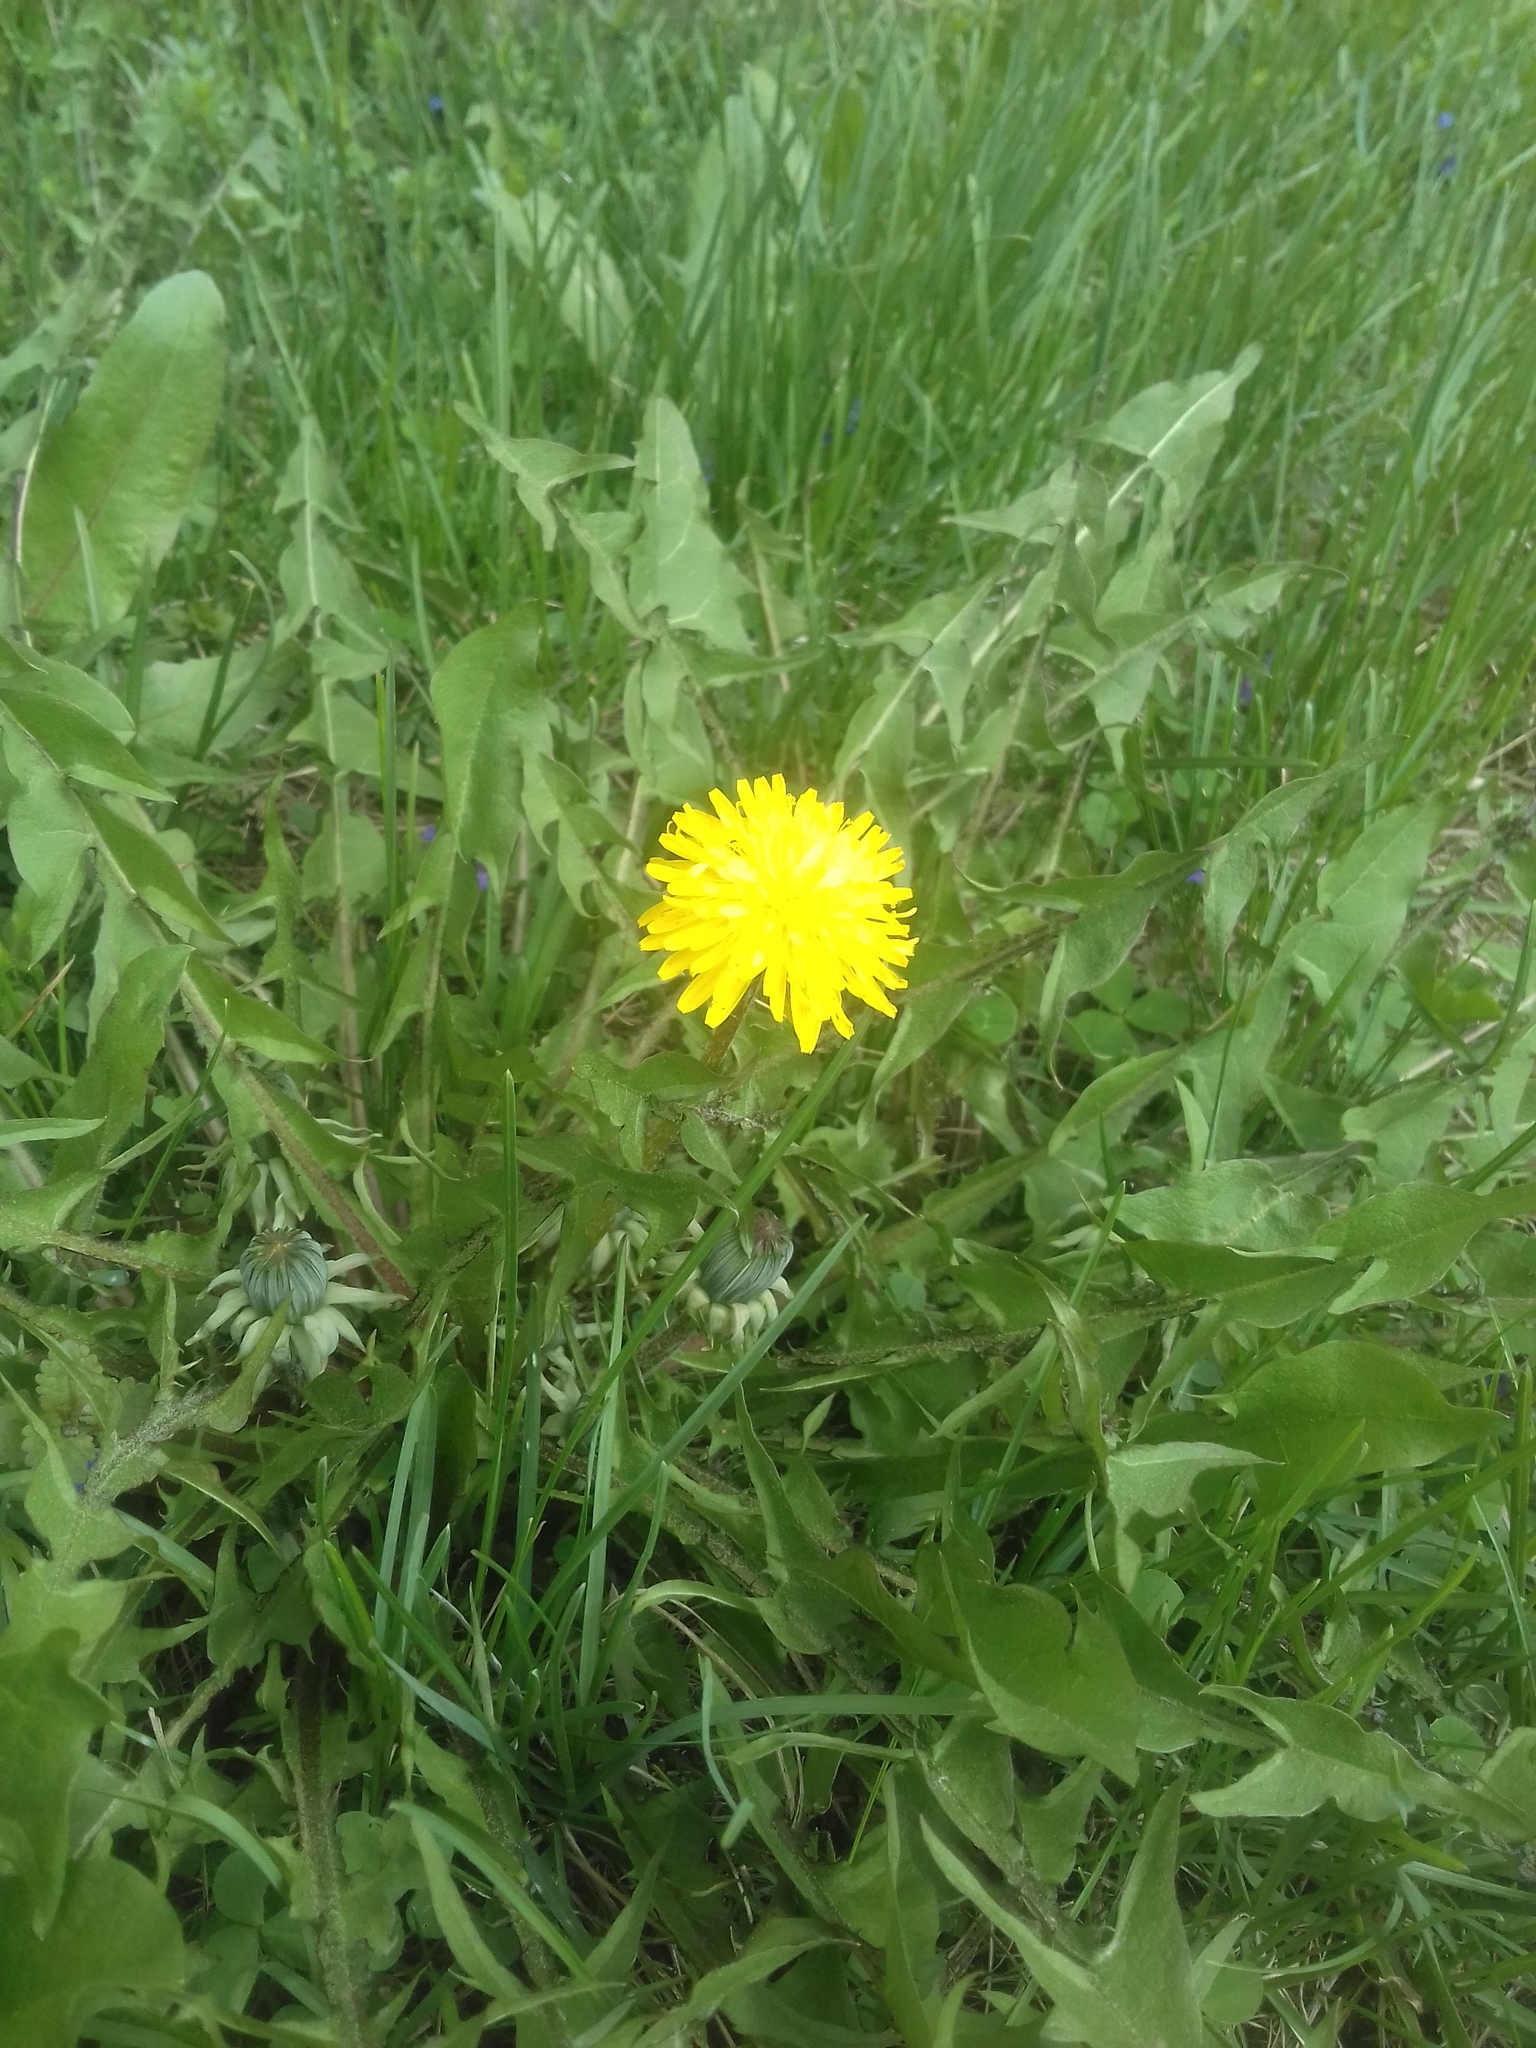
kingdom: Plantae
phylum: Tracheophyta
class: Magnoliopsida
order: Asterales
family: Asteraceae
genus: Taraxacum
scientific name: Taraxacum officinale
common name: Common dandelion
